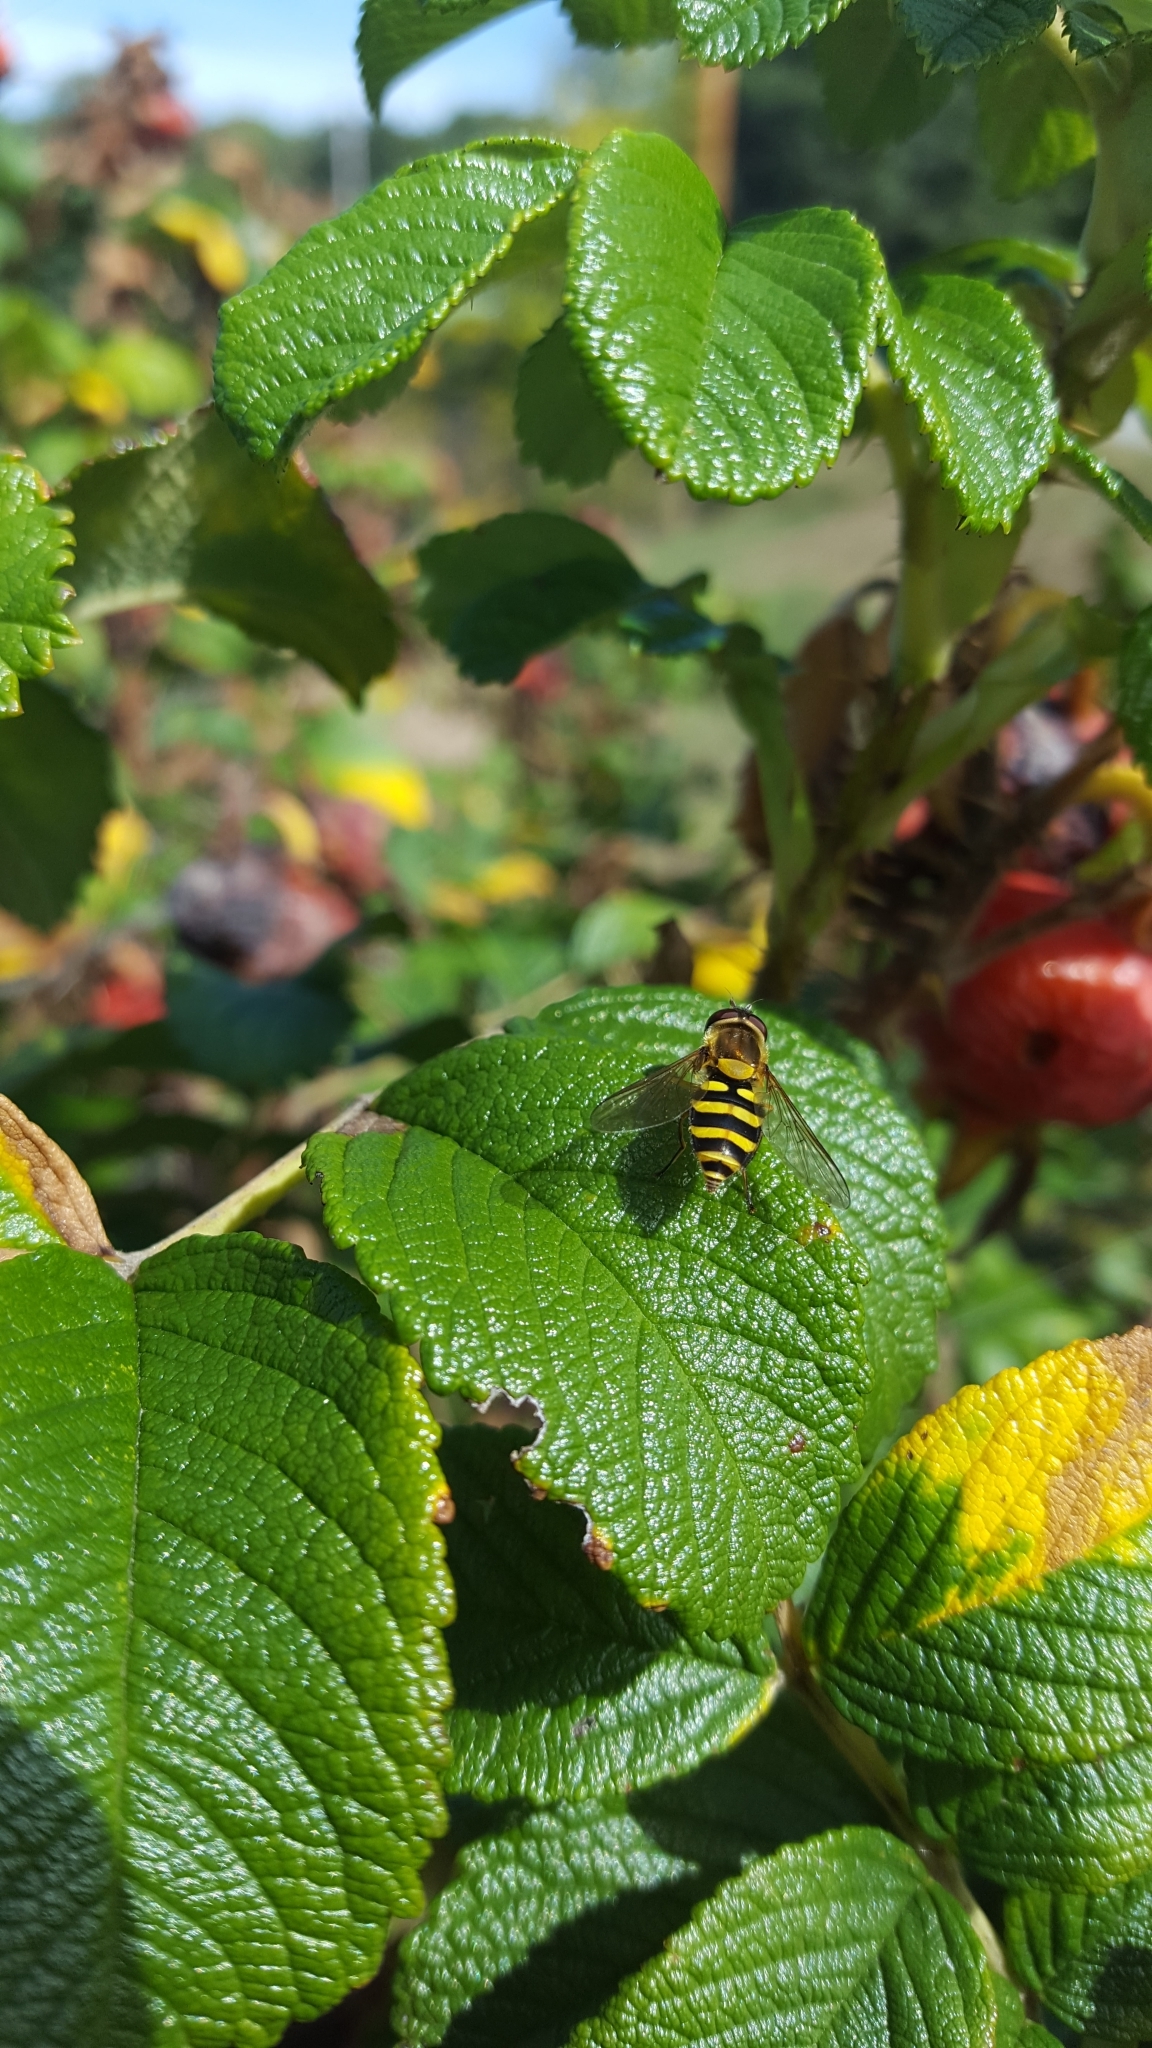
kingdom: Animalia
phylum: Arthropoda
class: Insecta
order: Diptera
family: Syrphidae
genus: Syrphus
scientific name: Syrphus
